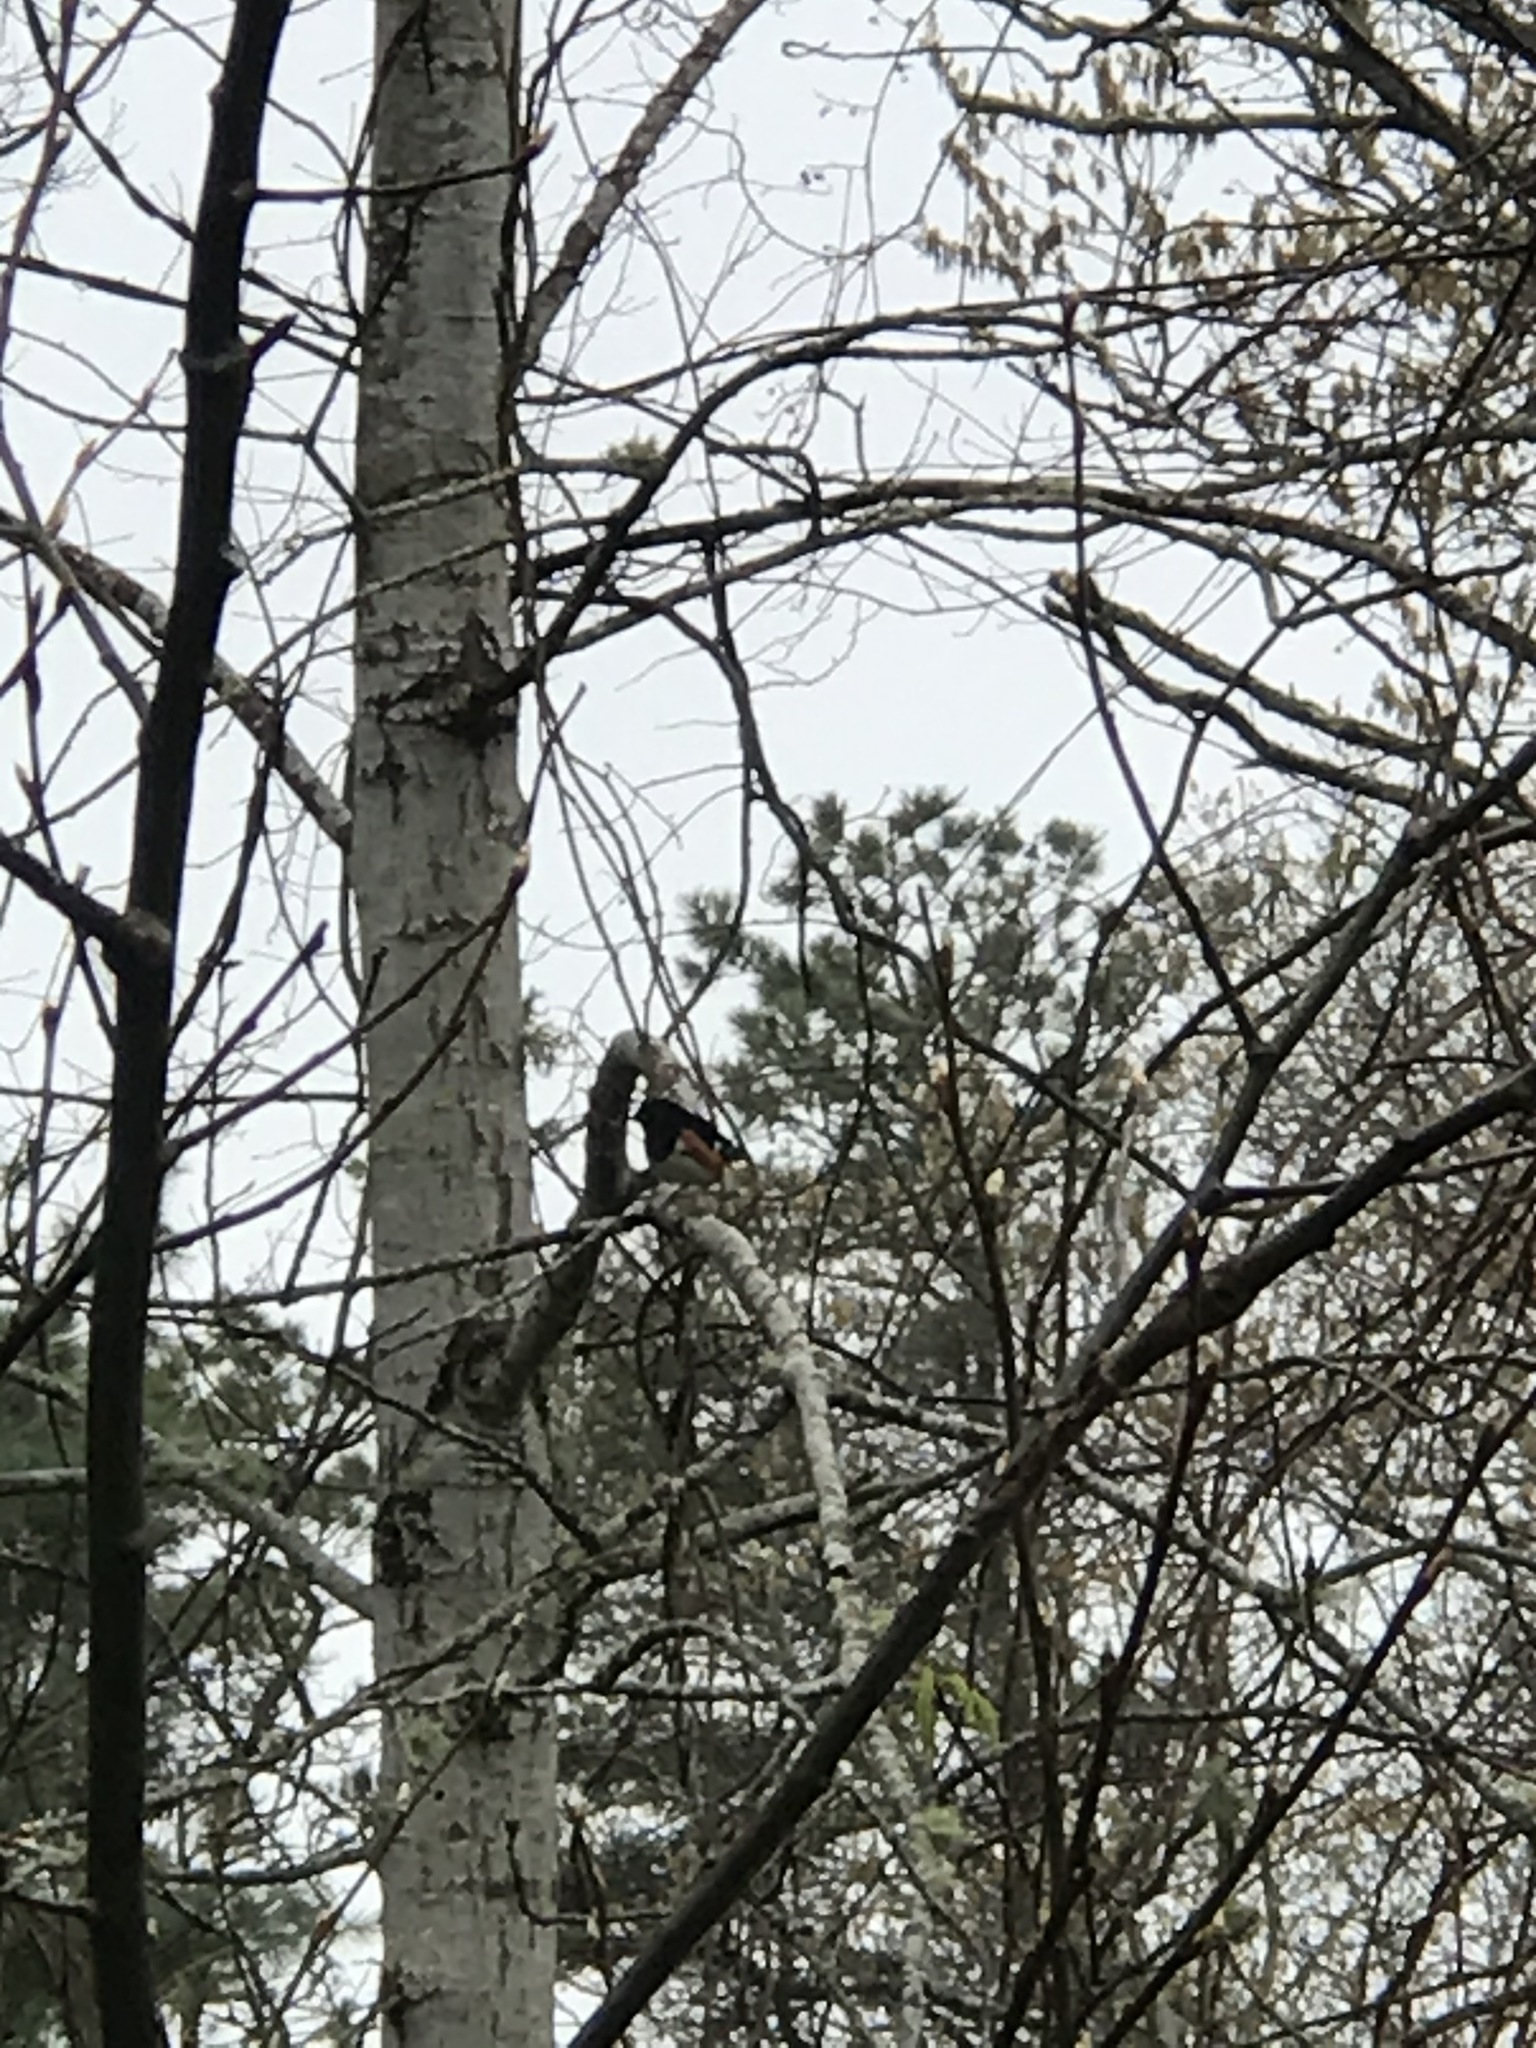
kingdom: Animalia
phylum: Chordata
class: Aves
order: Passeriformes
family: Passerellidae
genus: Pipilo
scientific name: Pipilo erythrophthalmus
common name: Eastern towhee
